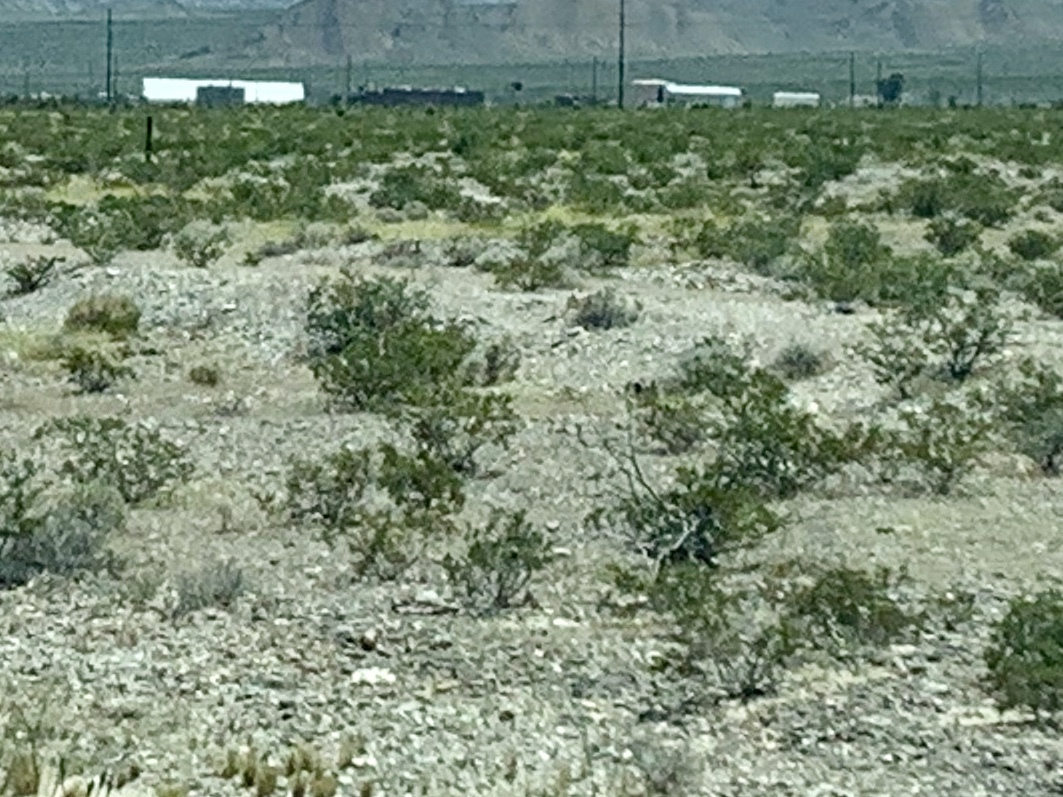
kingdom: Plantae
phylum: Tracheophyta
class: Magnoliopsida
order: Zygophyllales
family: Zygophyllaceae
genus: Larrea
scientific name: Larrea tridentata
